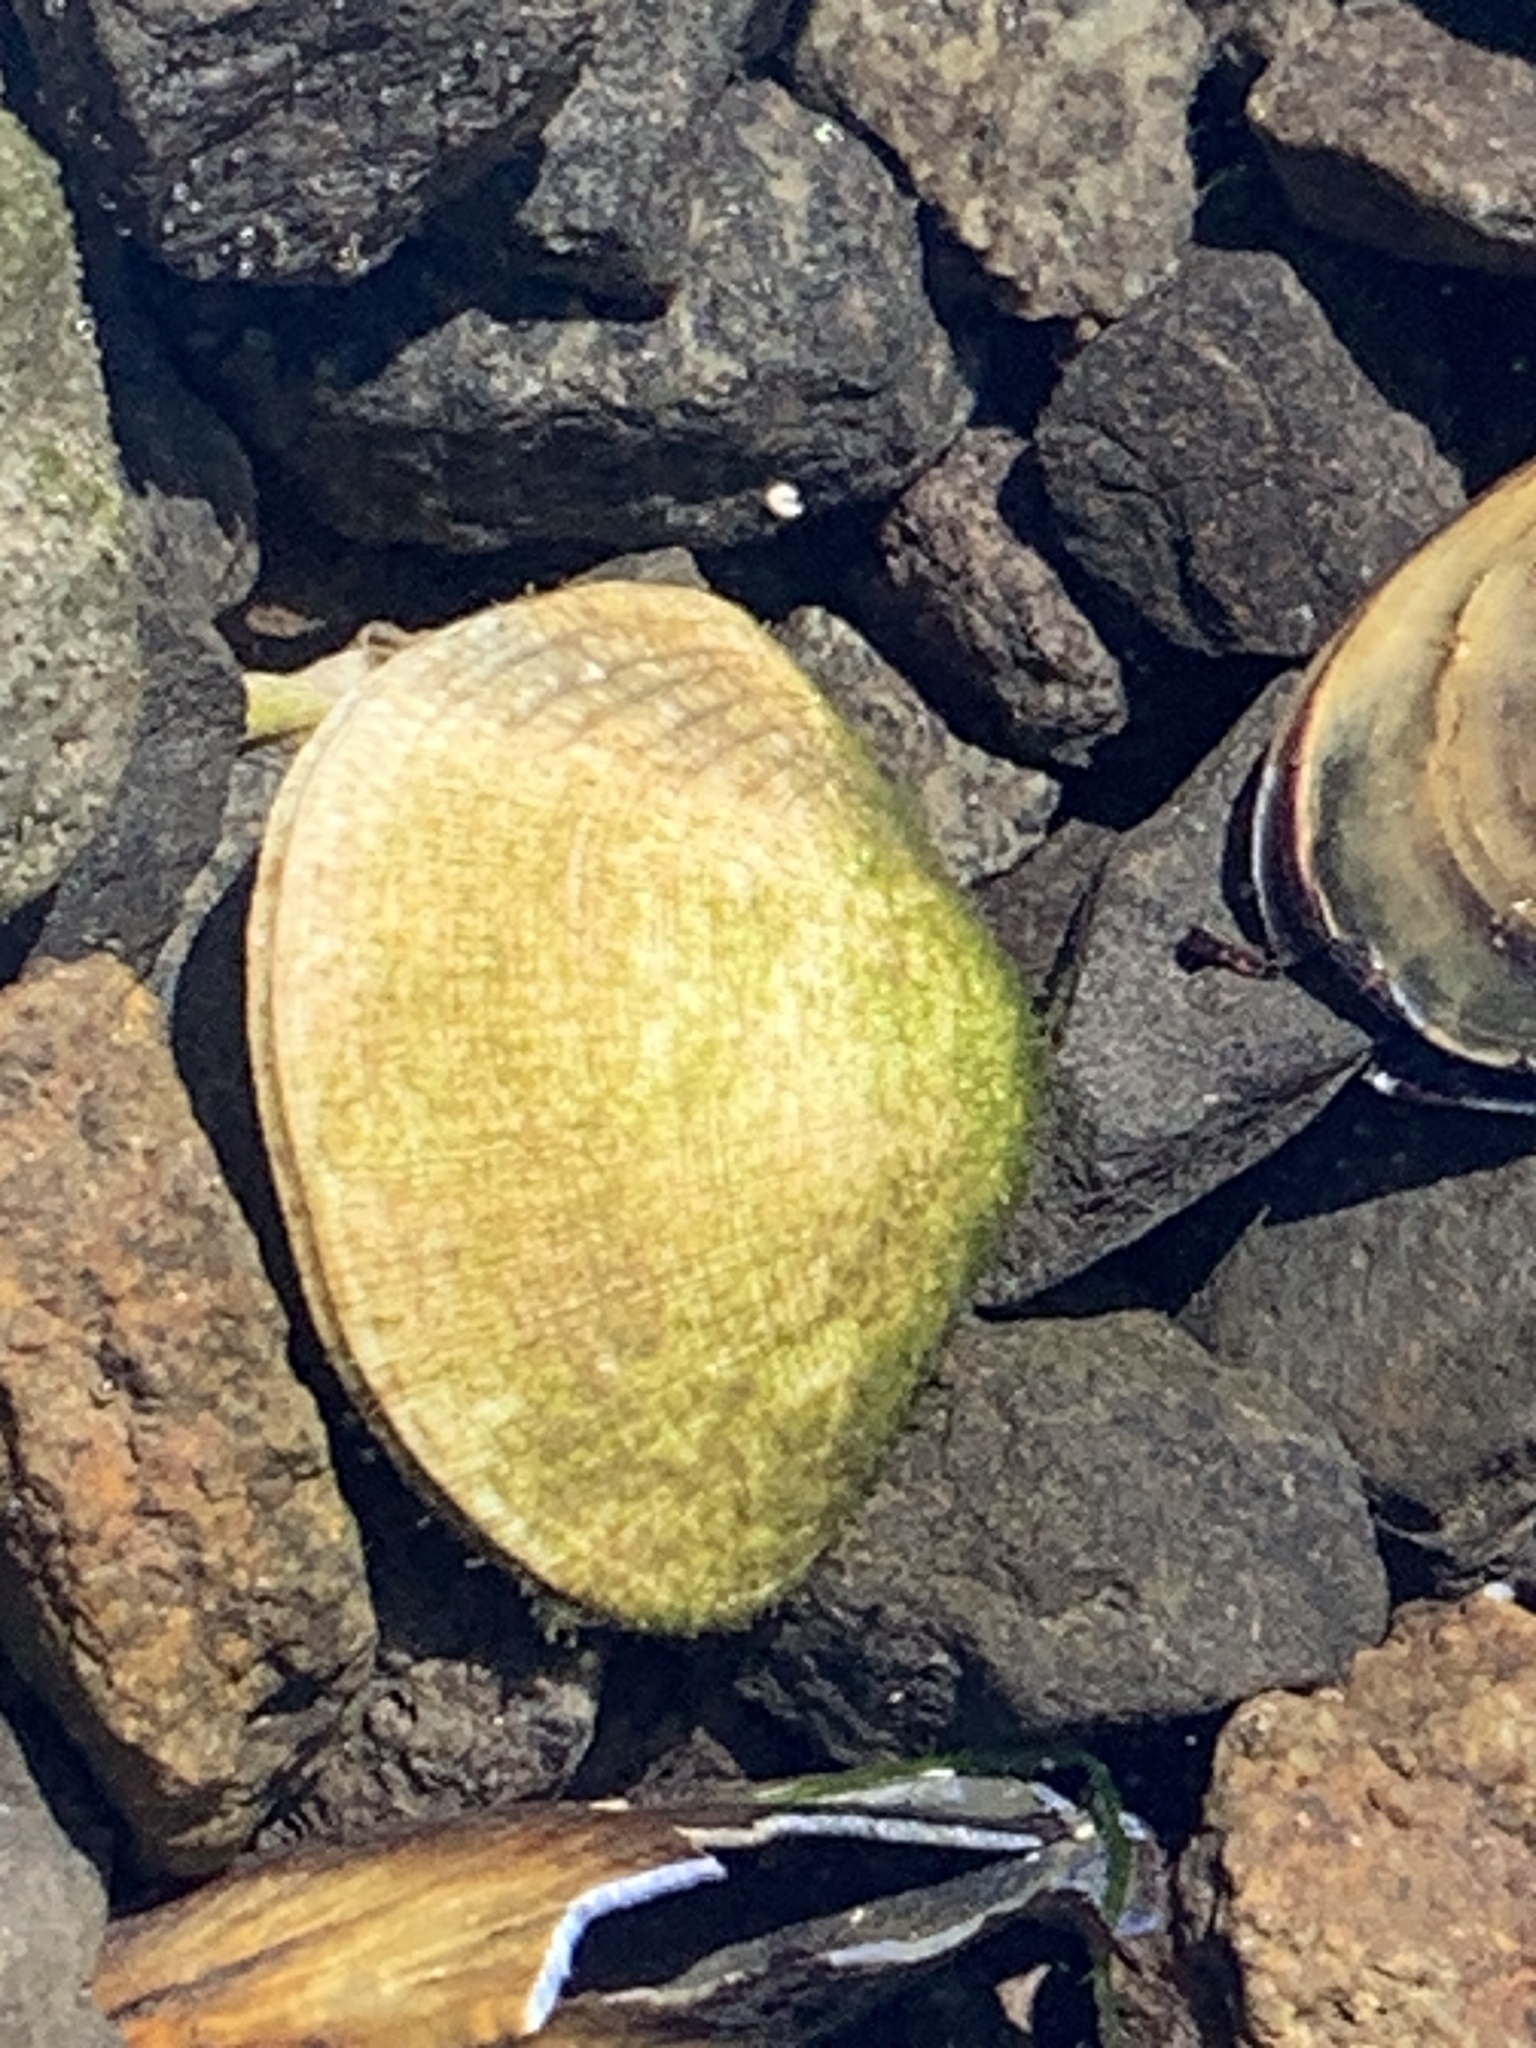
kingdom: Animalia
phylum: Mollusca
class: Bivalvia
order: Venerida
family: Veneridae
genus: Venerupis
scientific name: Venerupis largillierti
